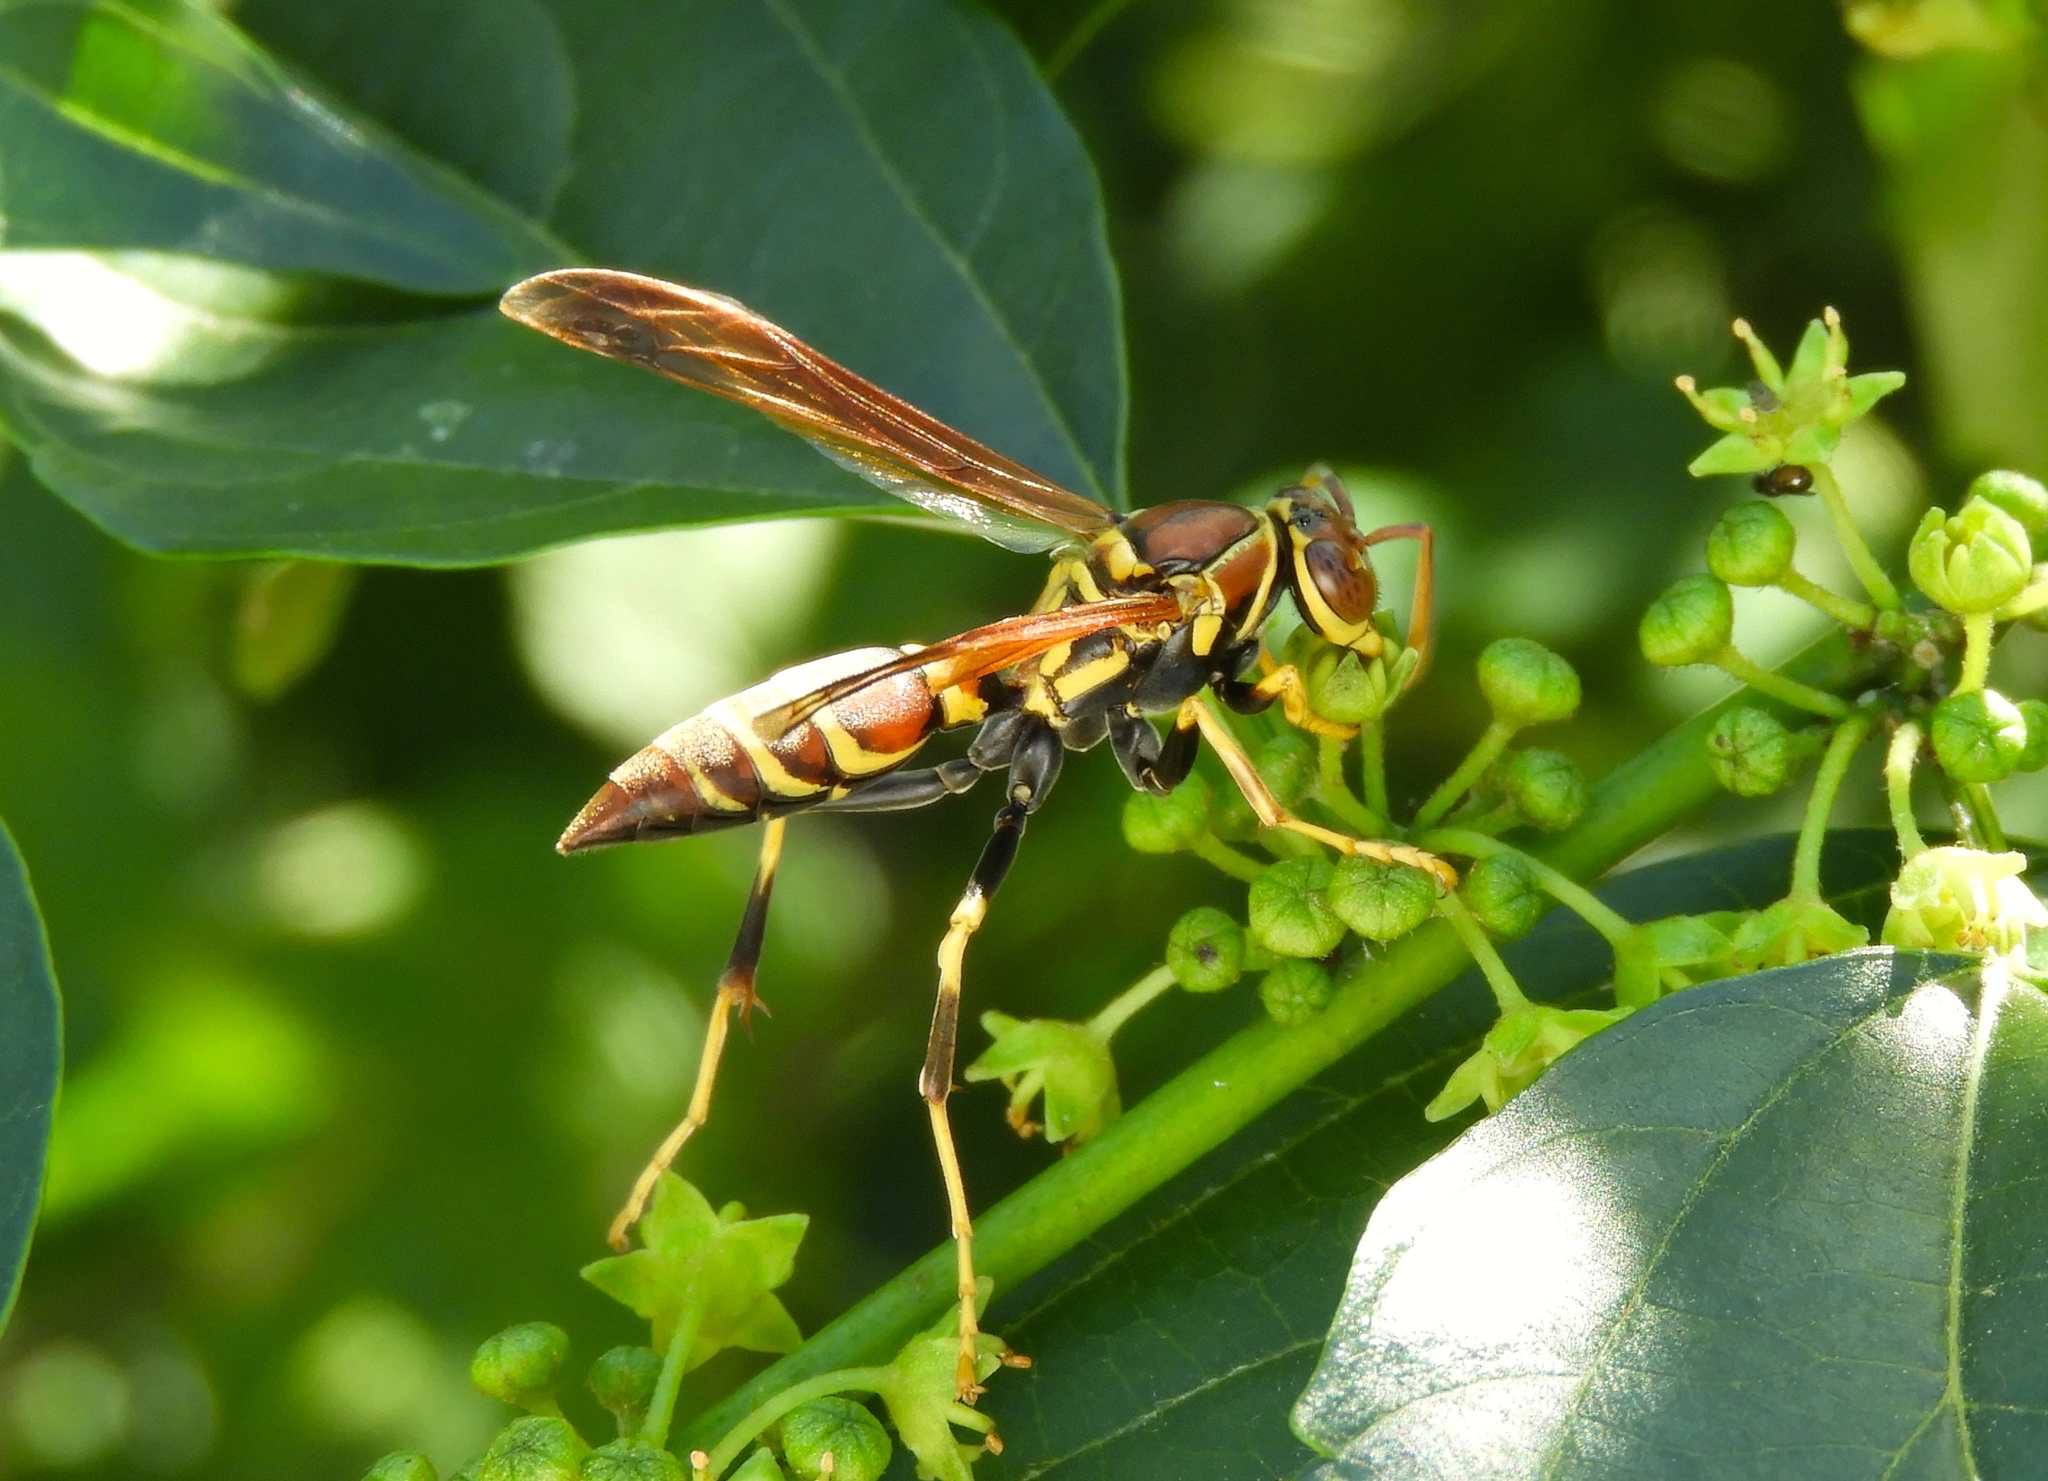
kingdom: Animalia
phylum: Arthropoda
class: Insecta
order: Hymenoptera
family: Eumenidae
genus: Polistes
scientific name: Polistes instabilis
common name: Unstable paper wasp
